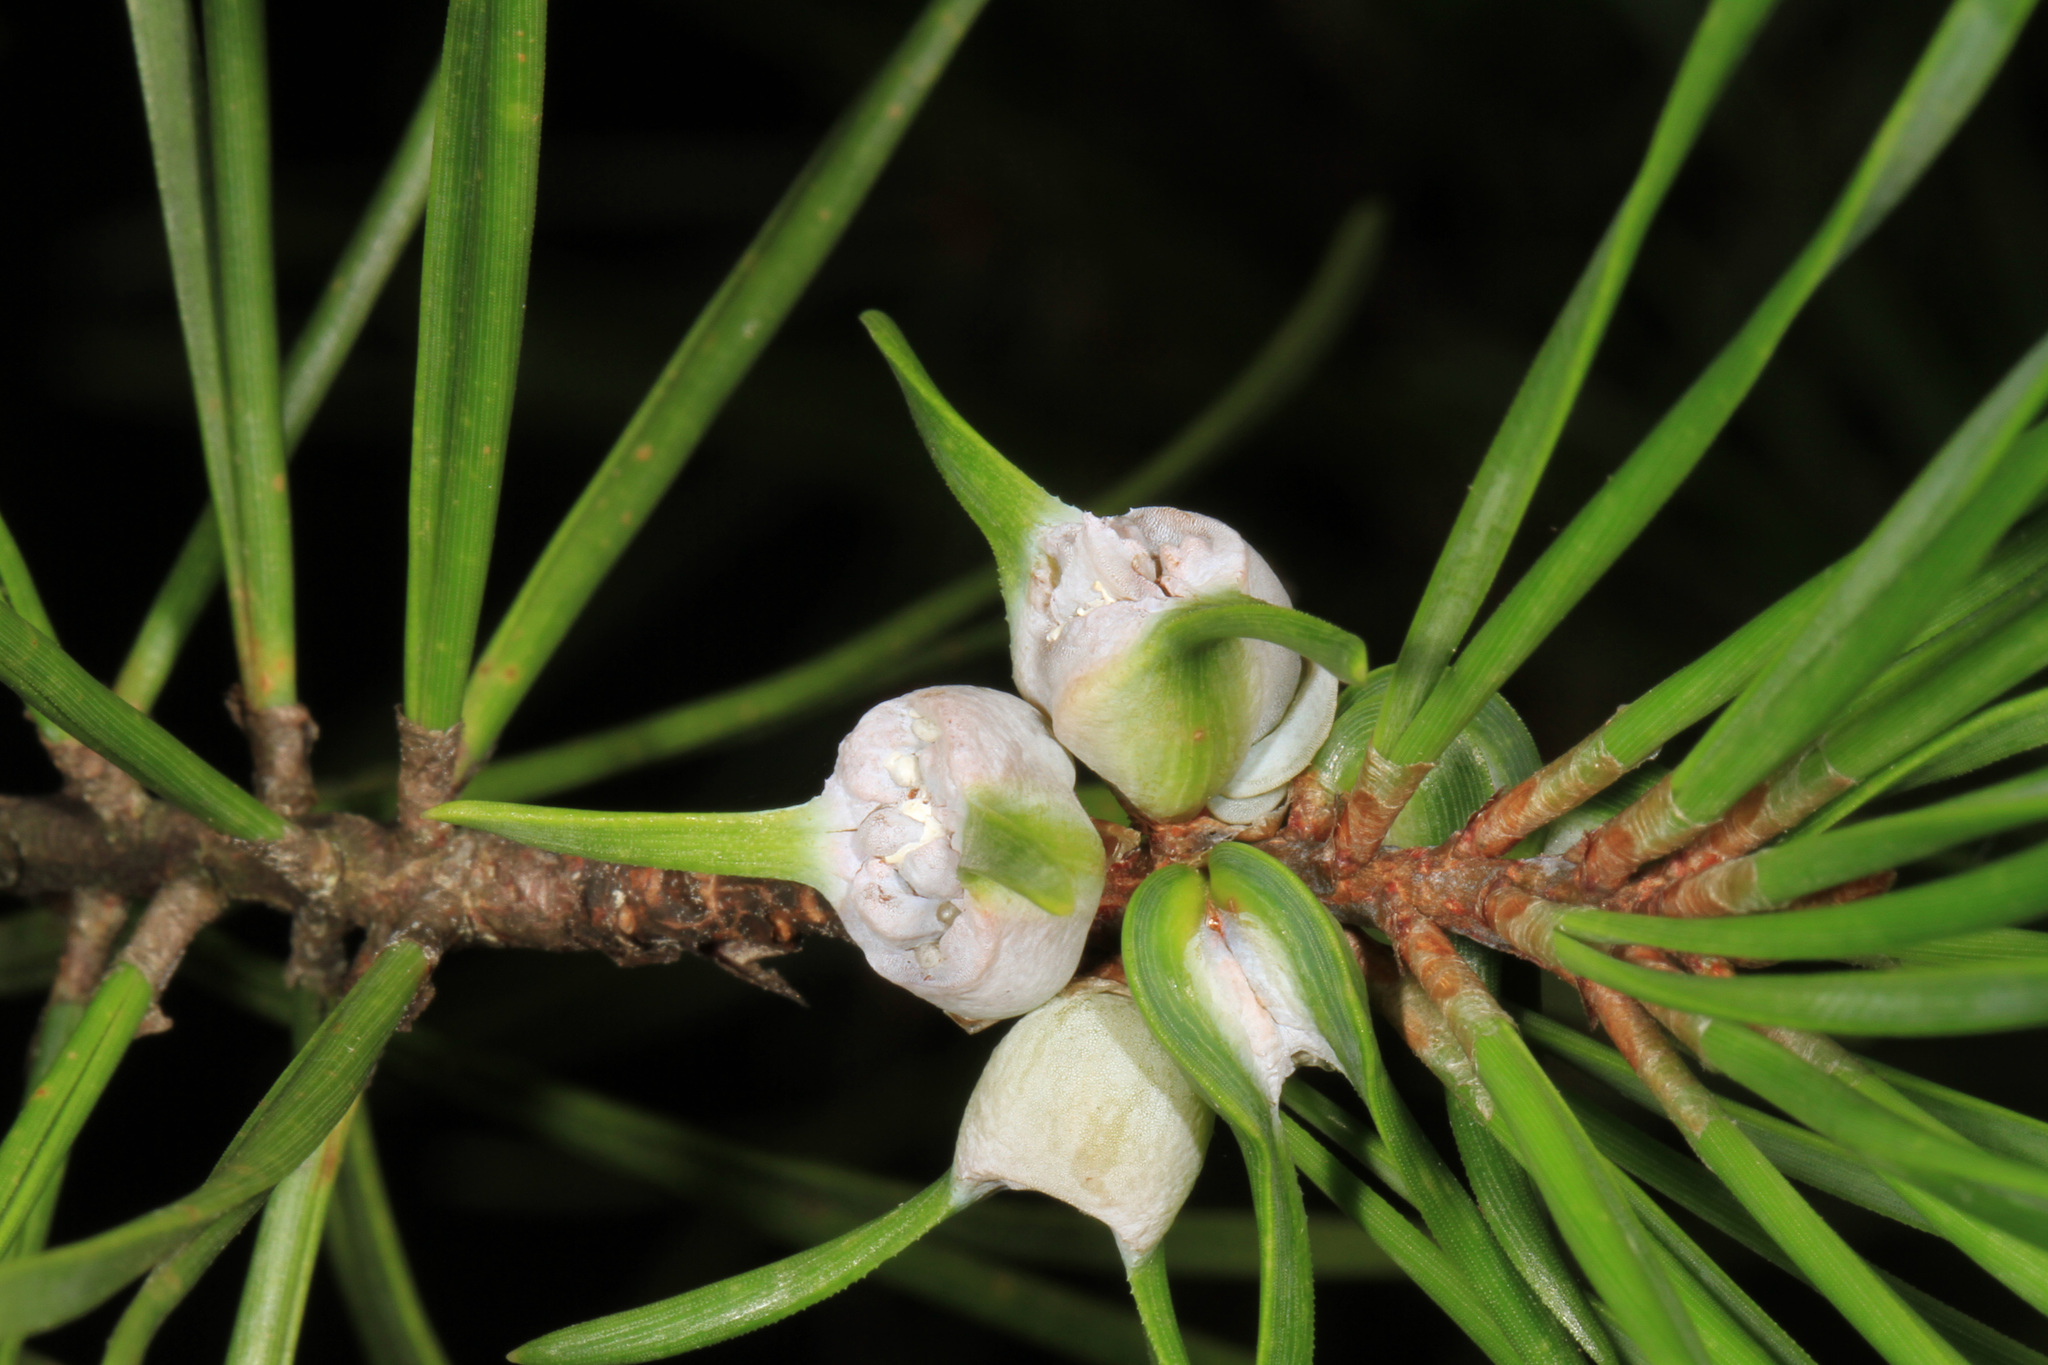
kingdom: Animalia
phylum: Arthropoda
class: Insecta
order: Diptera
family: Cecidomyiidae
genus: Thecodiplosis
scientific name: Thecodiplosis brachynteroides
